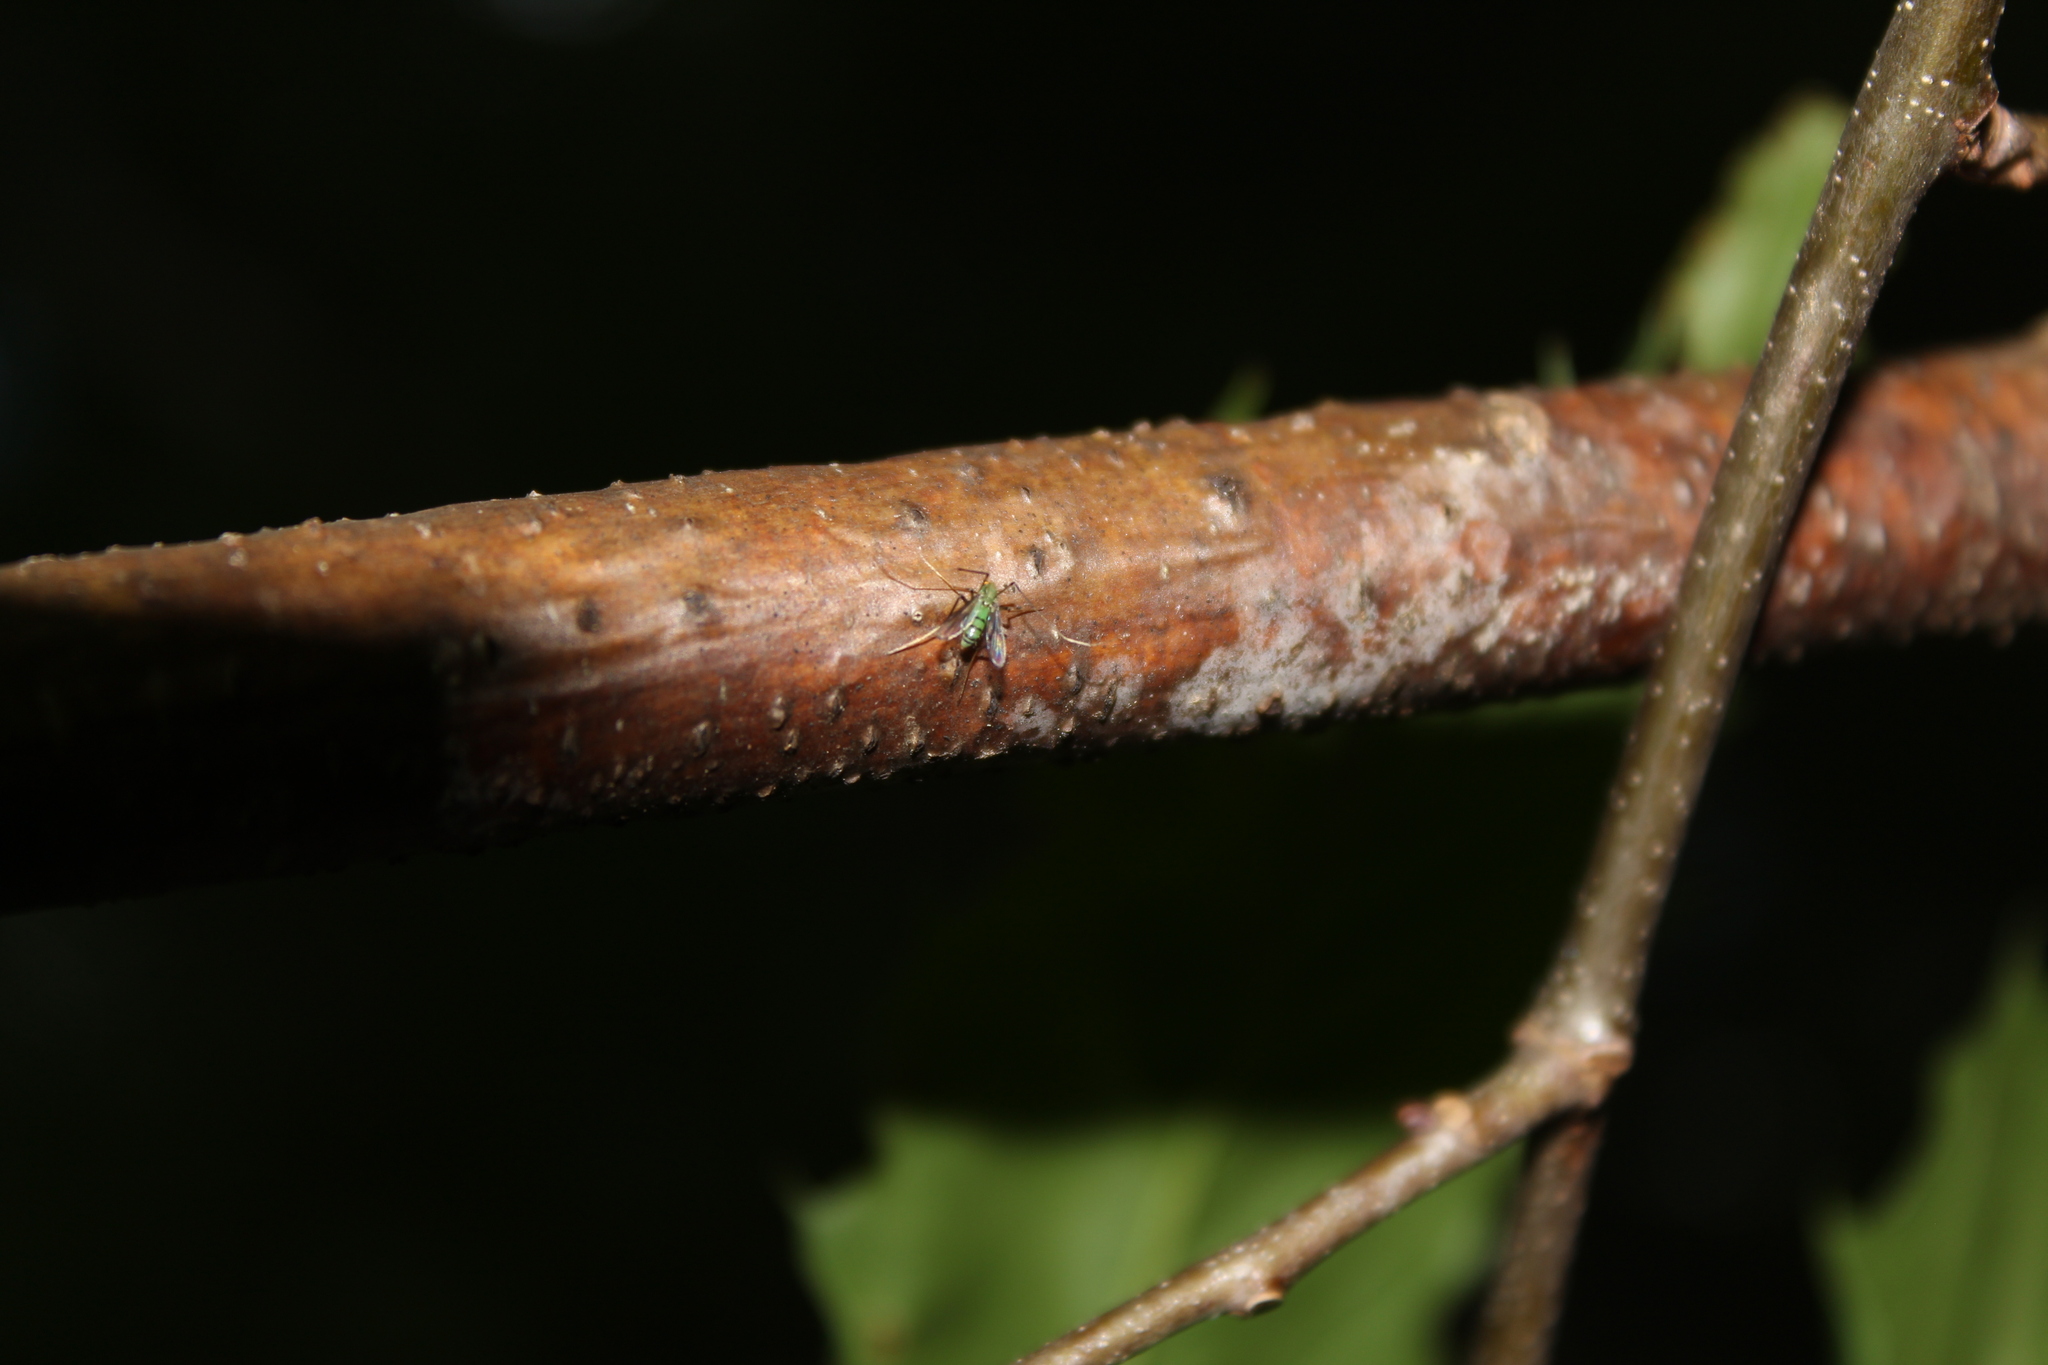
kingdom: Animalia
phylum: Arthropoda
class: Insecta
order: Diptera
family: Chironomidae
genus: Stenochironomus
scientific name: Stenochironomus cinctus
